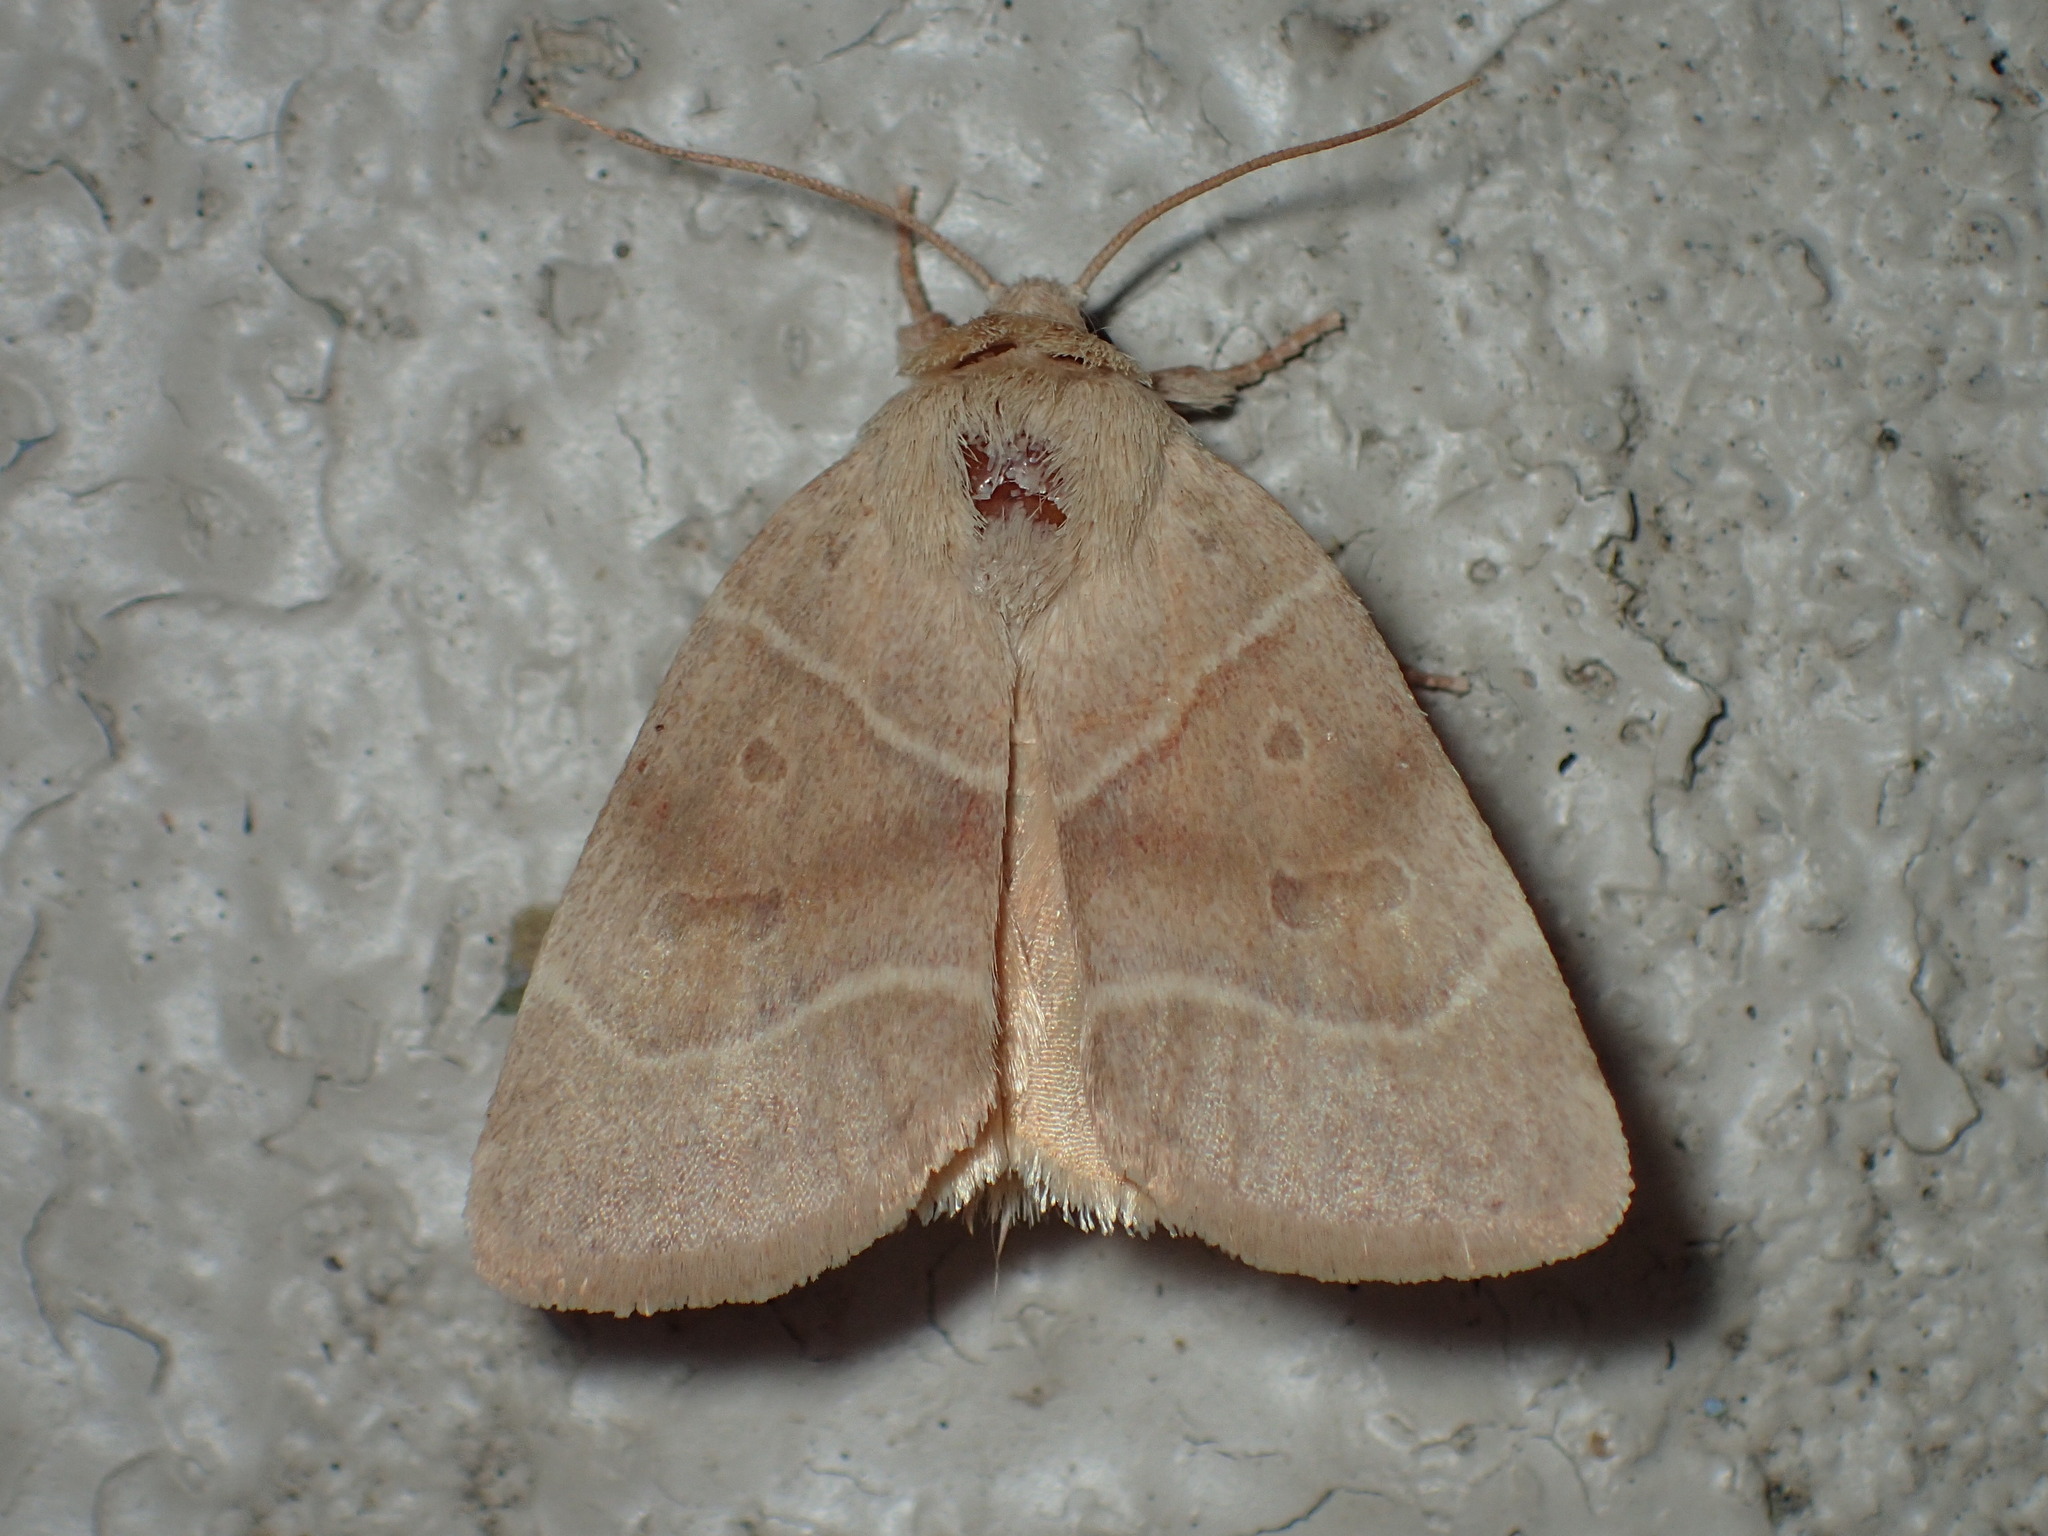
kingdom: Animalia
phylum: Arthropoda
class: Insecta
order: Lepidoptera
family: Noctuidae
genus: Cosmia
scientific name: Cosmia calami
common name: American dun-bar moth
